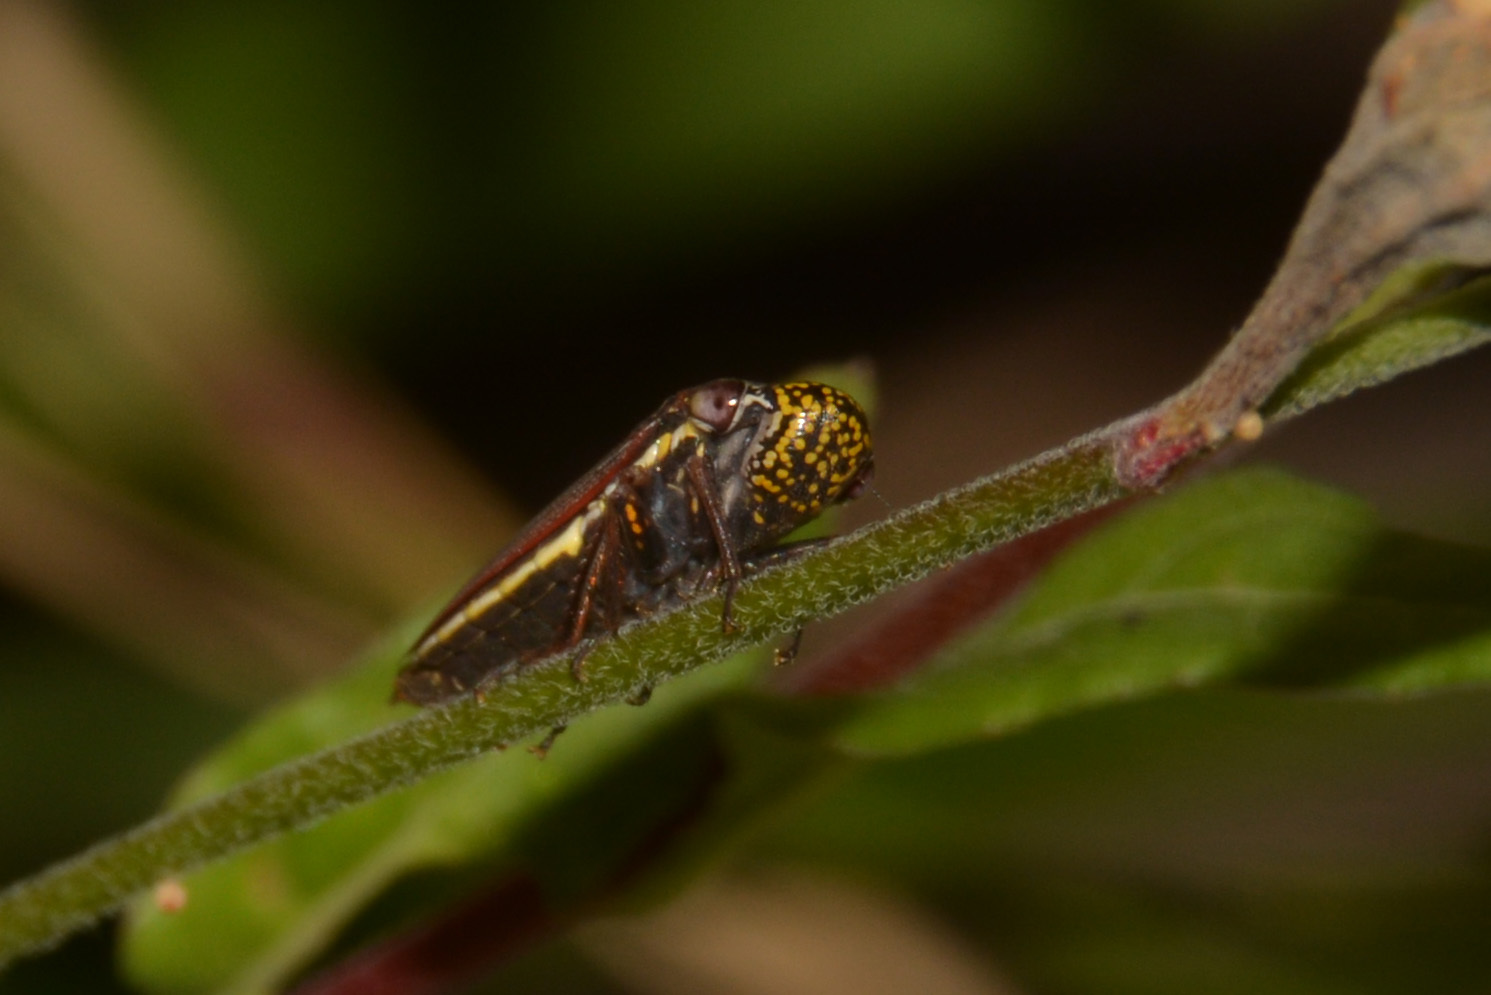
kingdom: Animalia
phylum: Arthropoda
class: Insecta
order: Hemiptera
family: Cicadellidae
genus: Tapajosa
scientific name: Tapajosa rubromarginata
